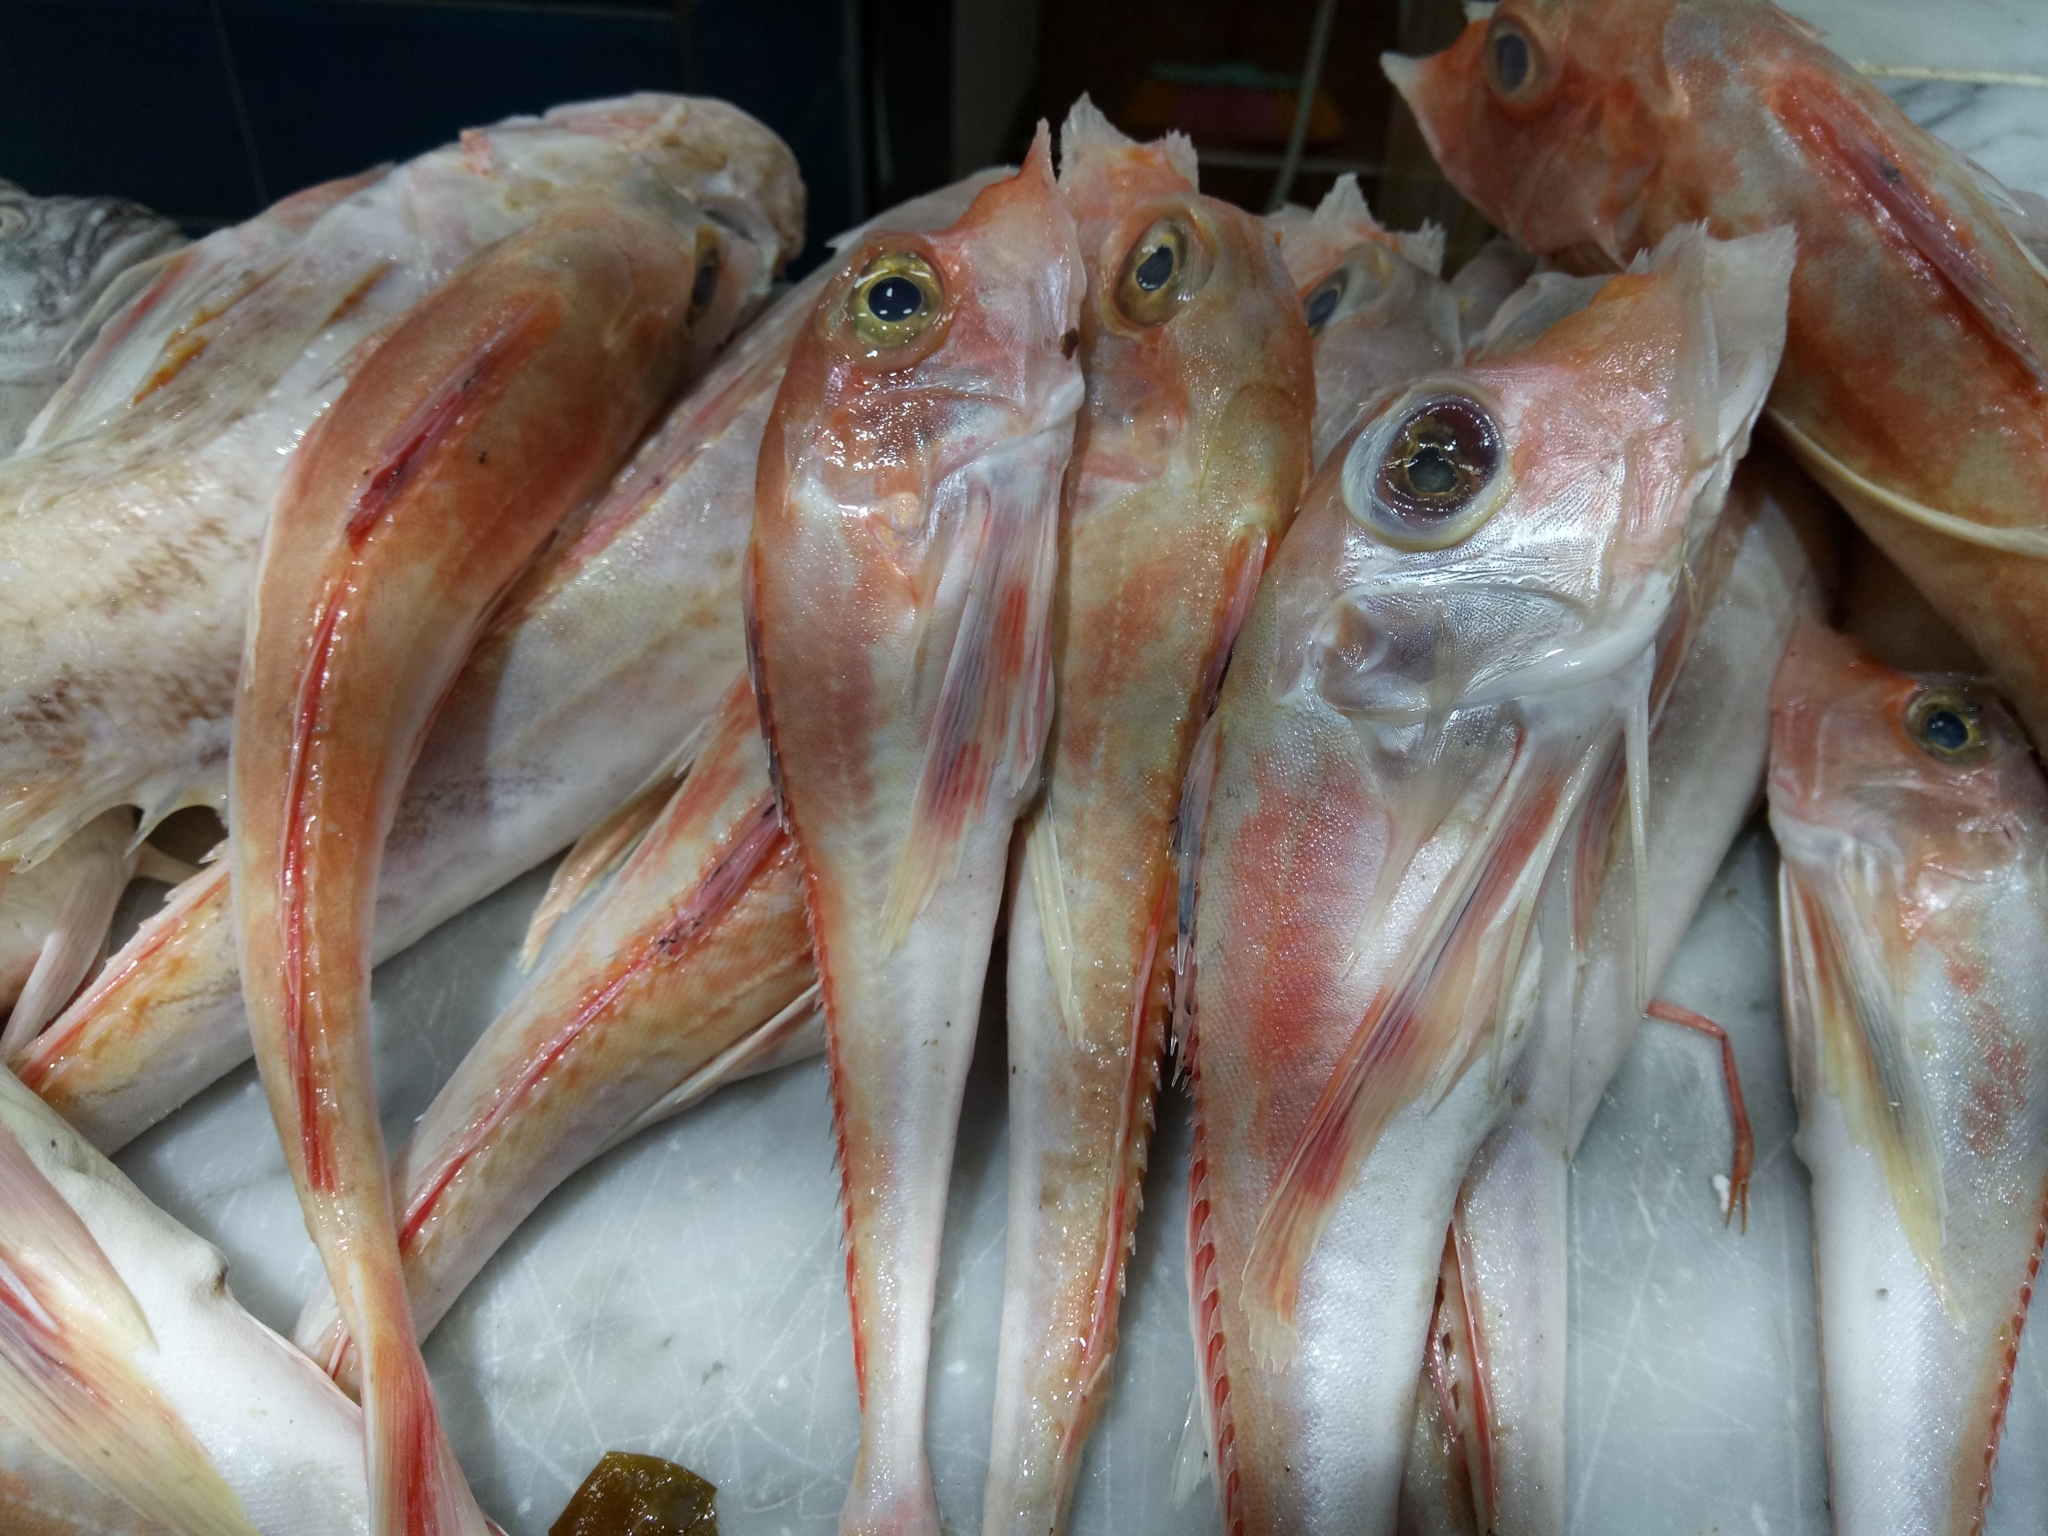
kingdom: Animalia
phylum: Chordata
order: Scorpaeniformes
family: Triglidae
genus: Trigla
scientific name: Trigla lyra
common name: Piper
